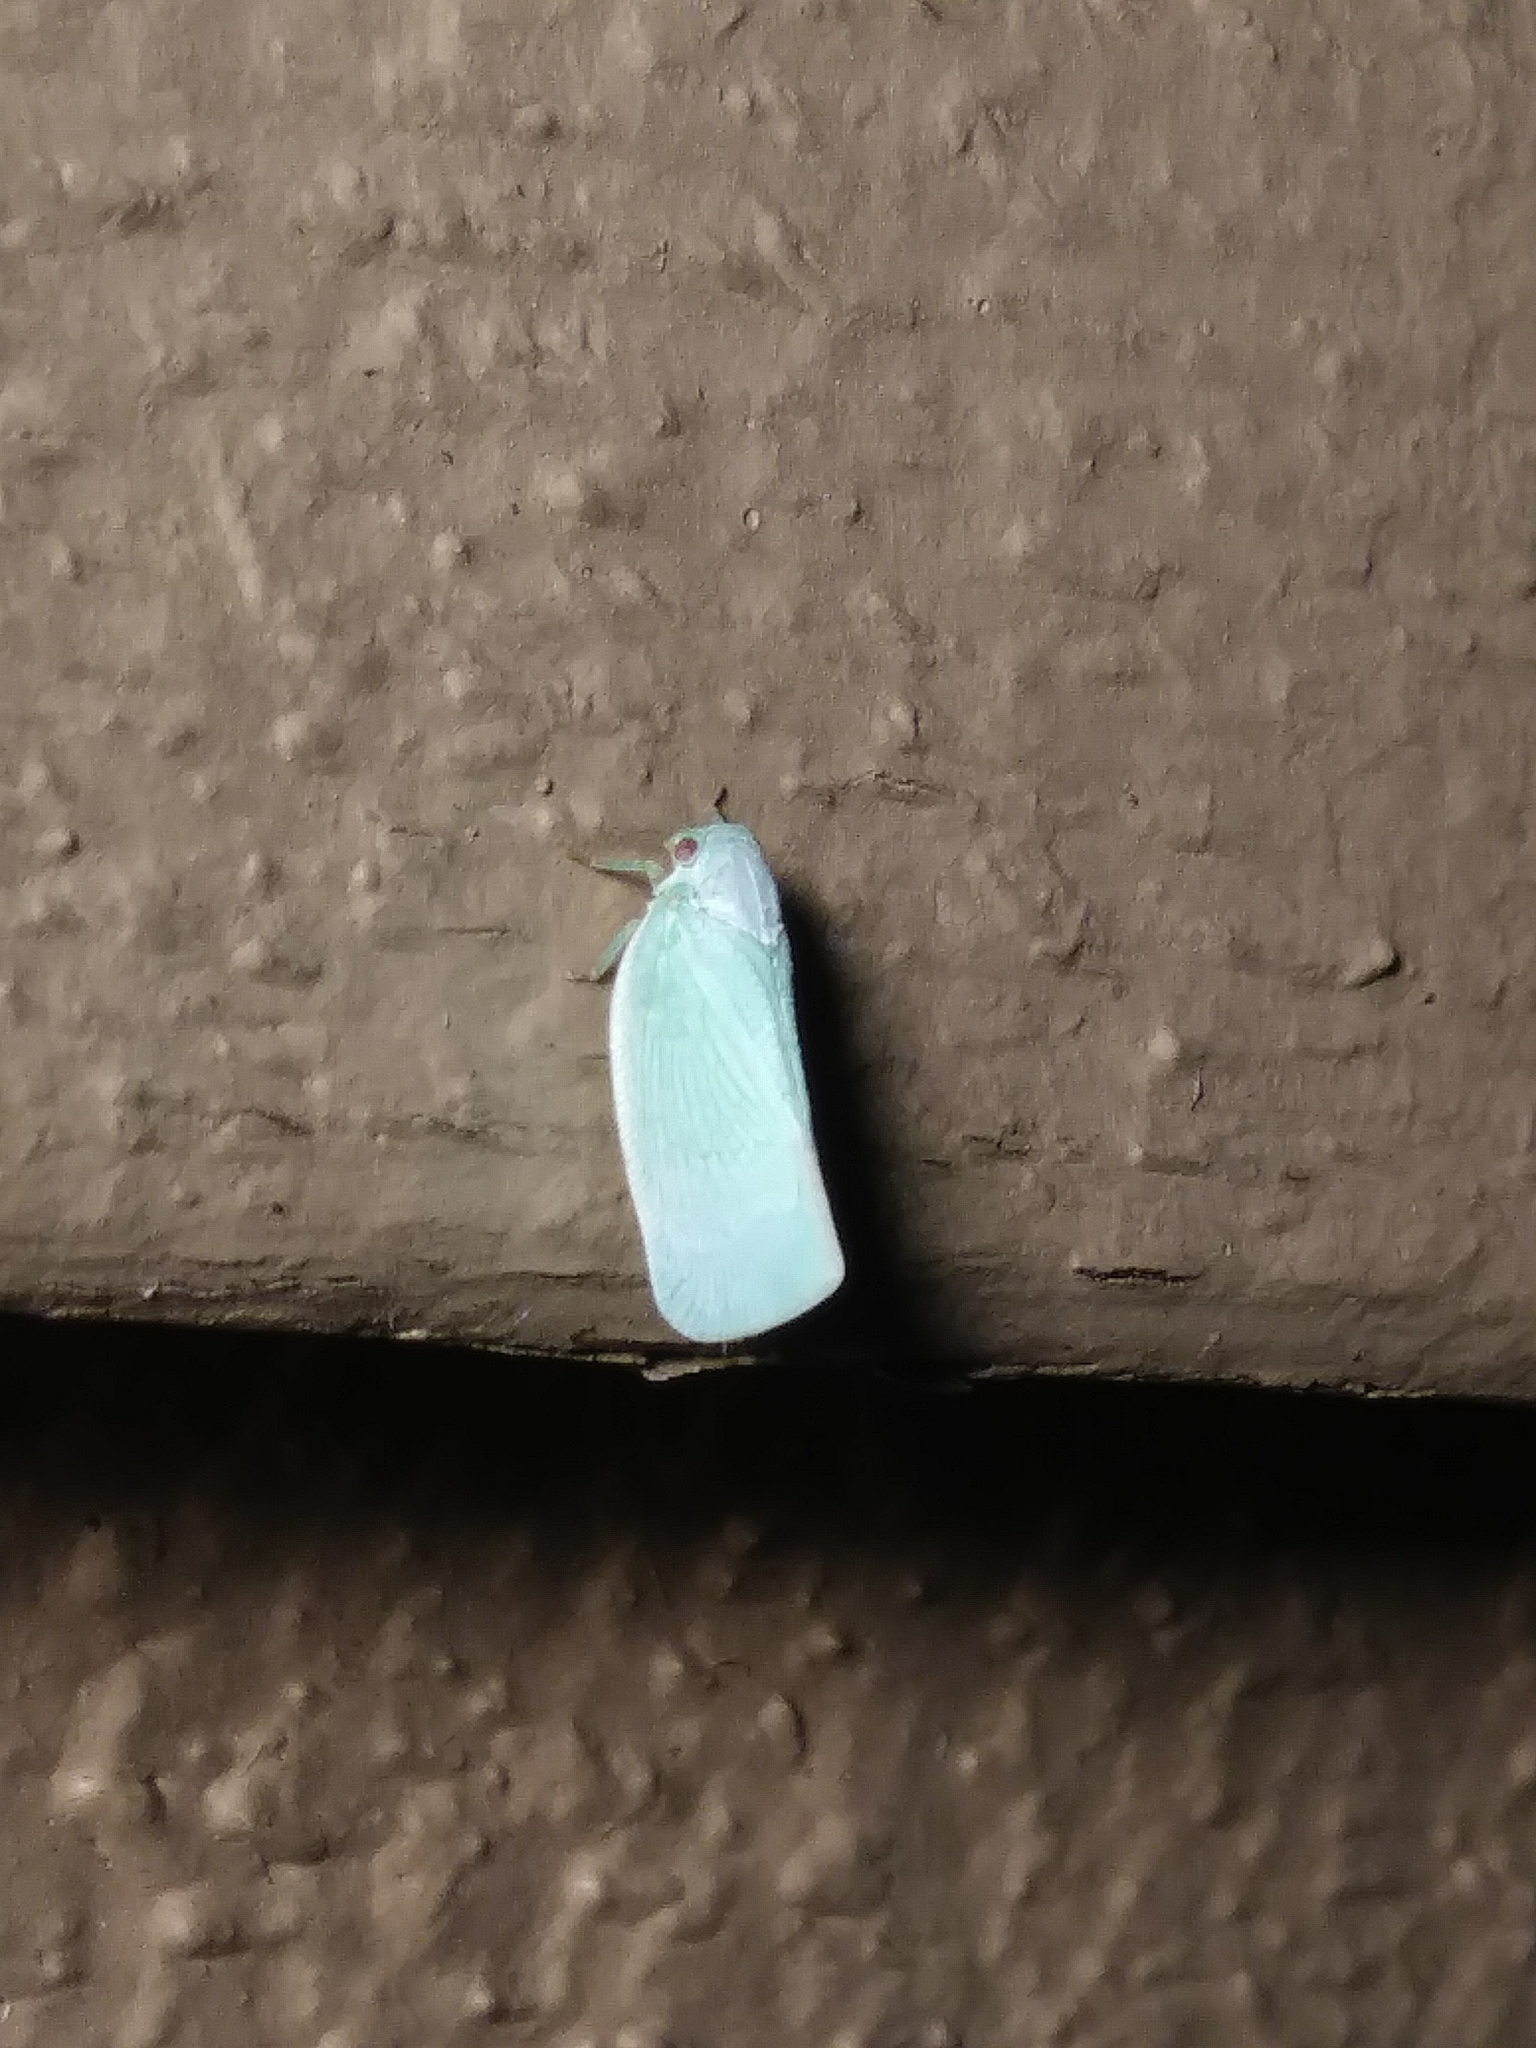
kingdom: Animalia
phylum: Arthropoda
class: Insecta
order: Hemiptera
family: Flatidae
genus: Flatormenis
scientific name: Flatormenis proxima
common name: Northern flatid planthopper
